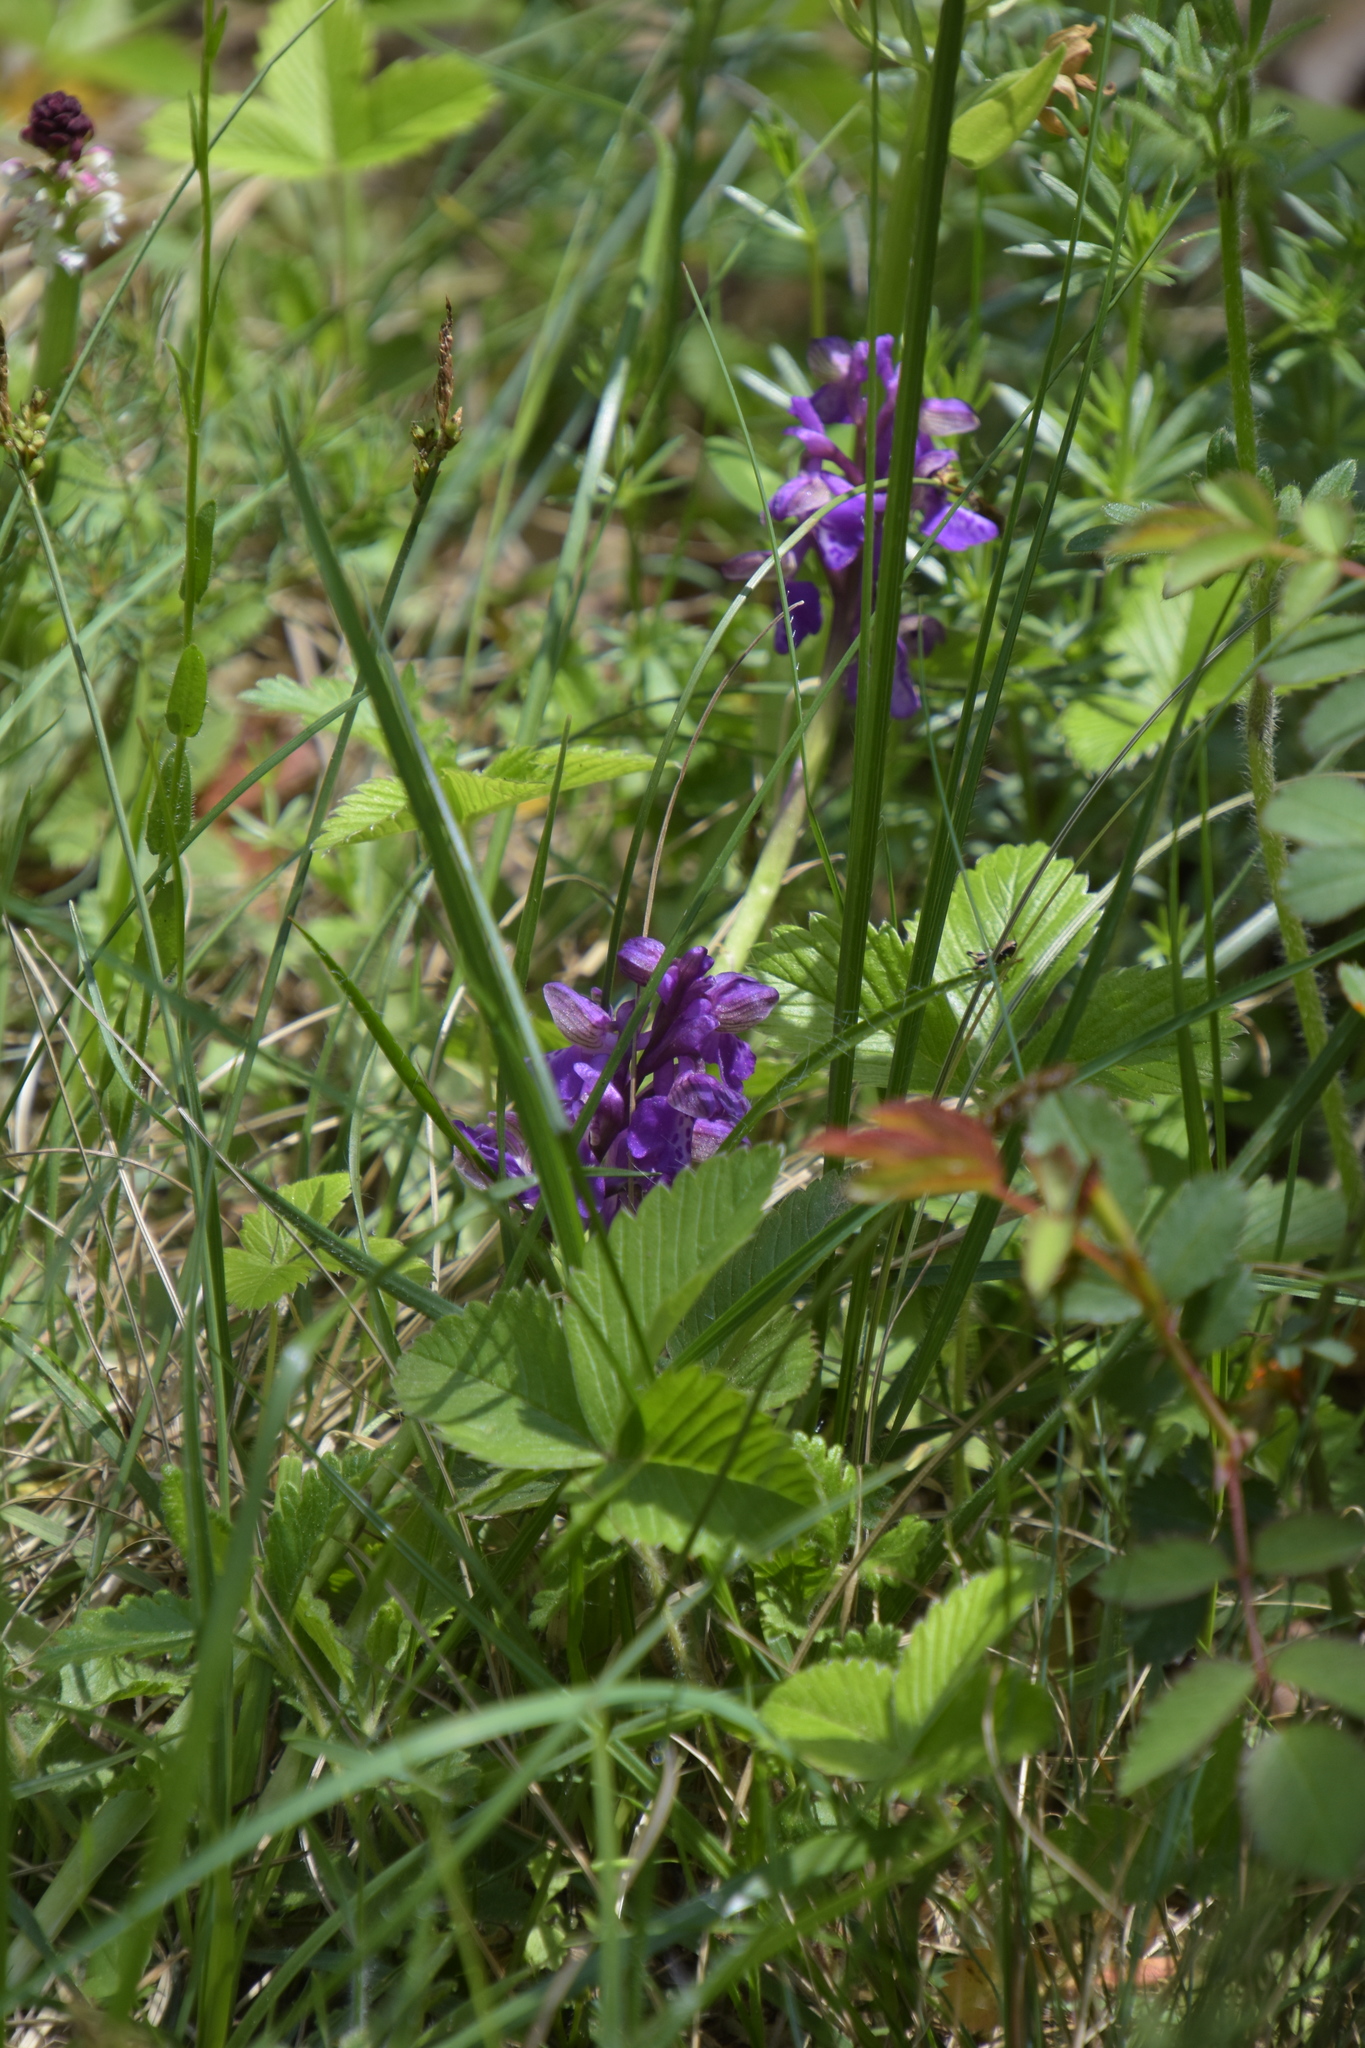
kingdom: Plantae
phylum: Tracheophyta
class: Liliopsida
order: Asparagales
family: Orchidaceae
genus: Anacamptis
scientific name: Anacamptis morio
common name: Green-winged orchid
